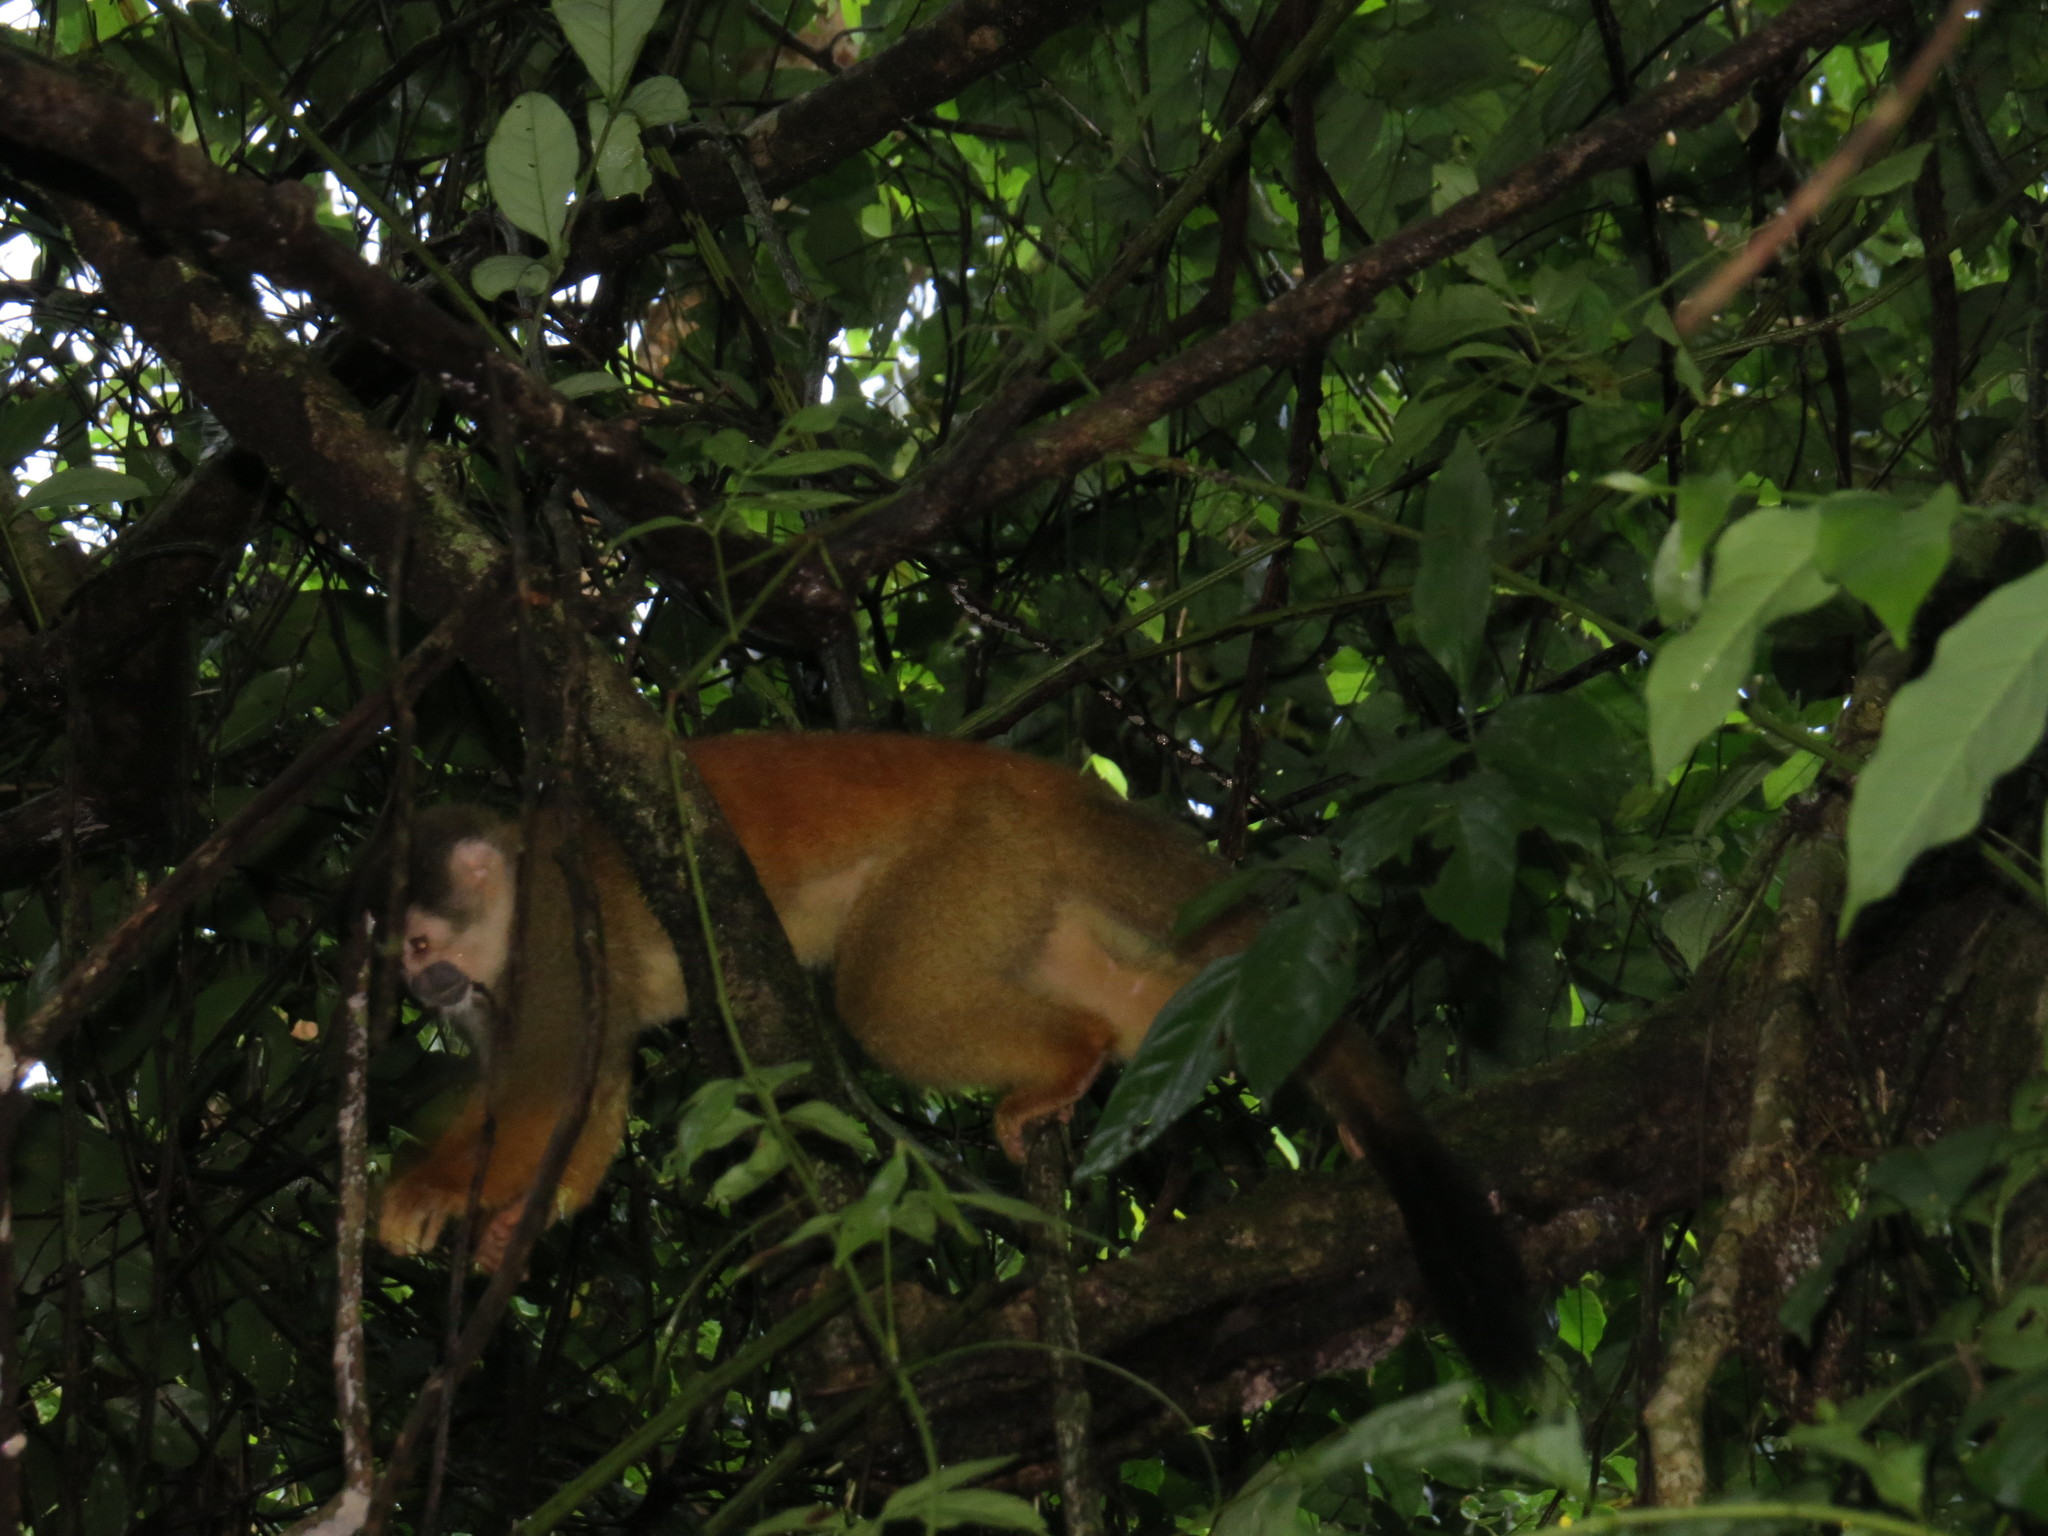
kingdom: Animalia
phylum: Chordata
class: Mammalia
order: Primates
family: Cebidae
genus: Saimiri
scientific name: Saimiri oerstedii
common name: Central american squirrel monkey
